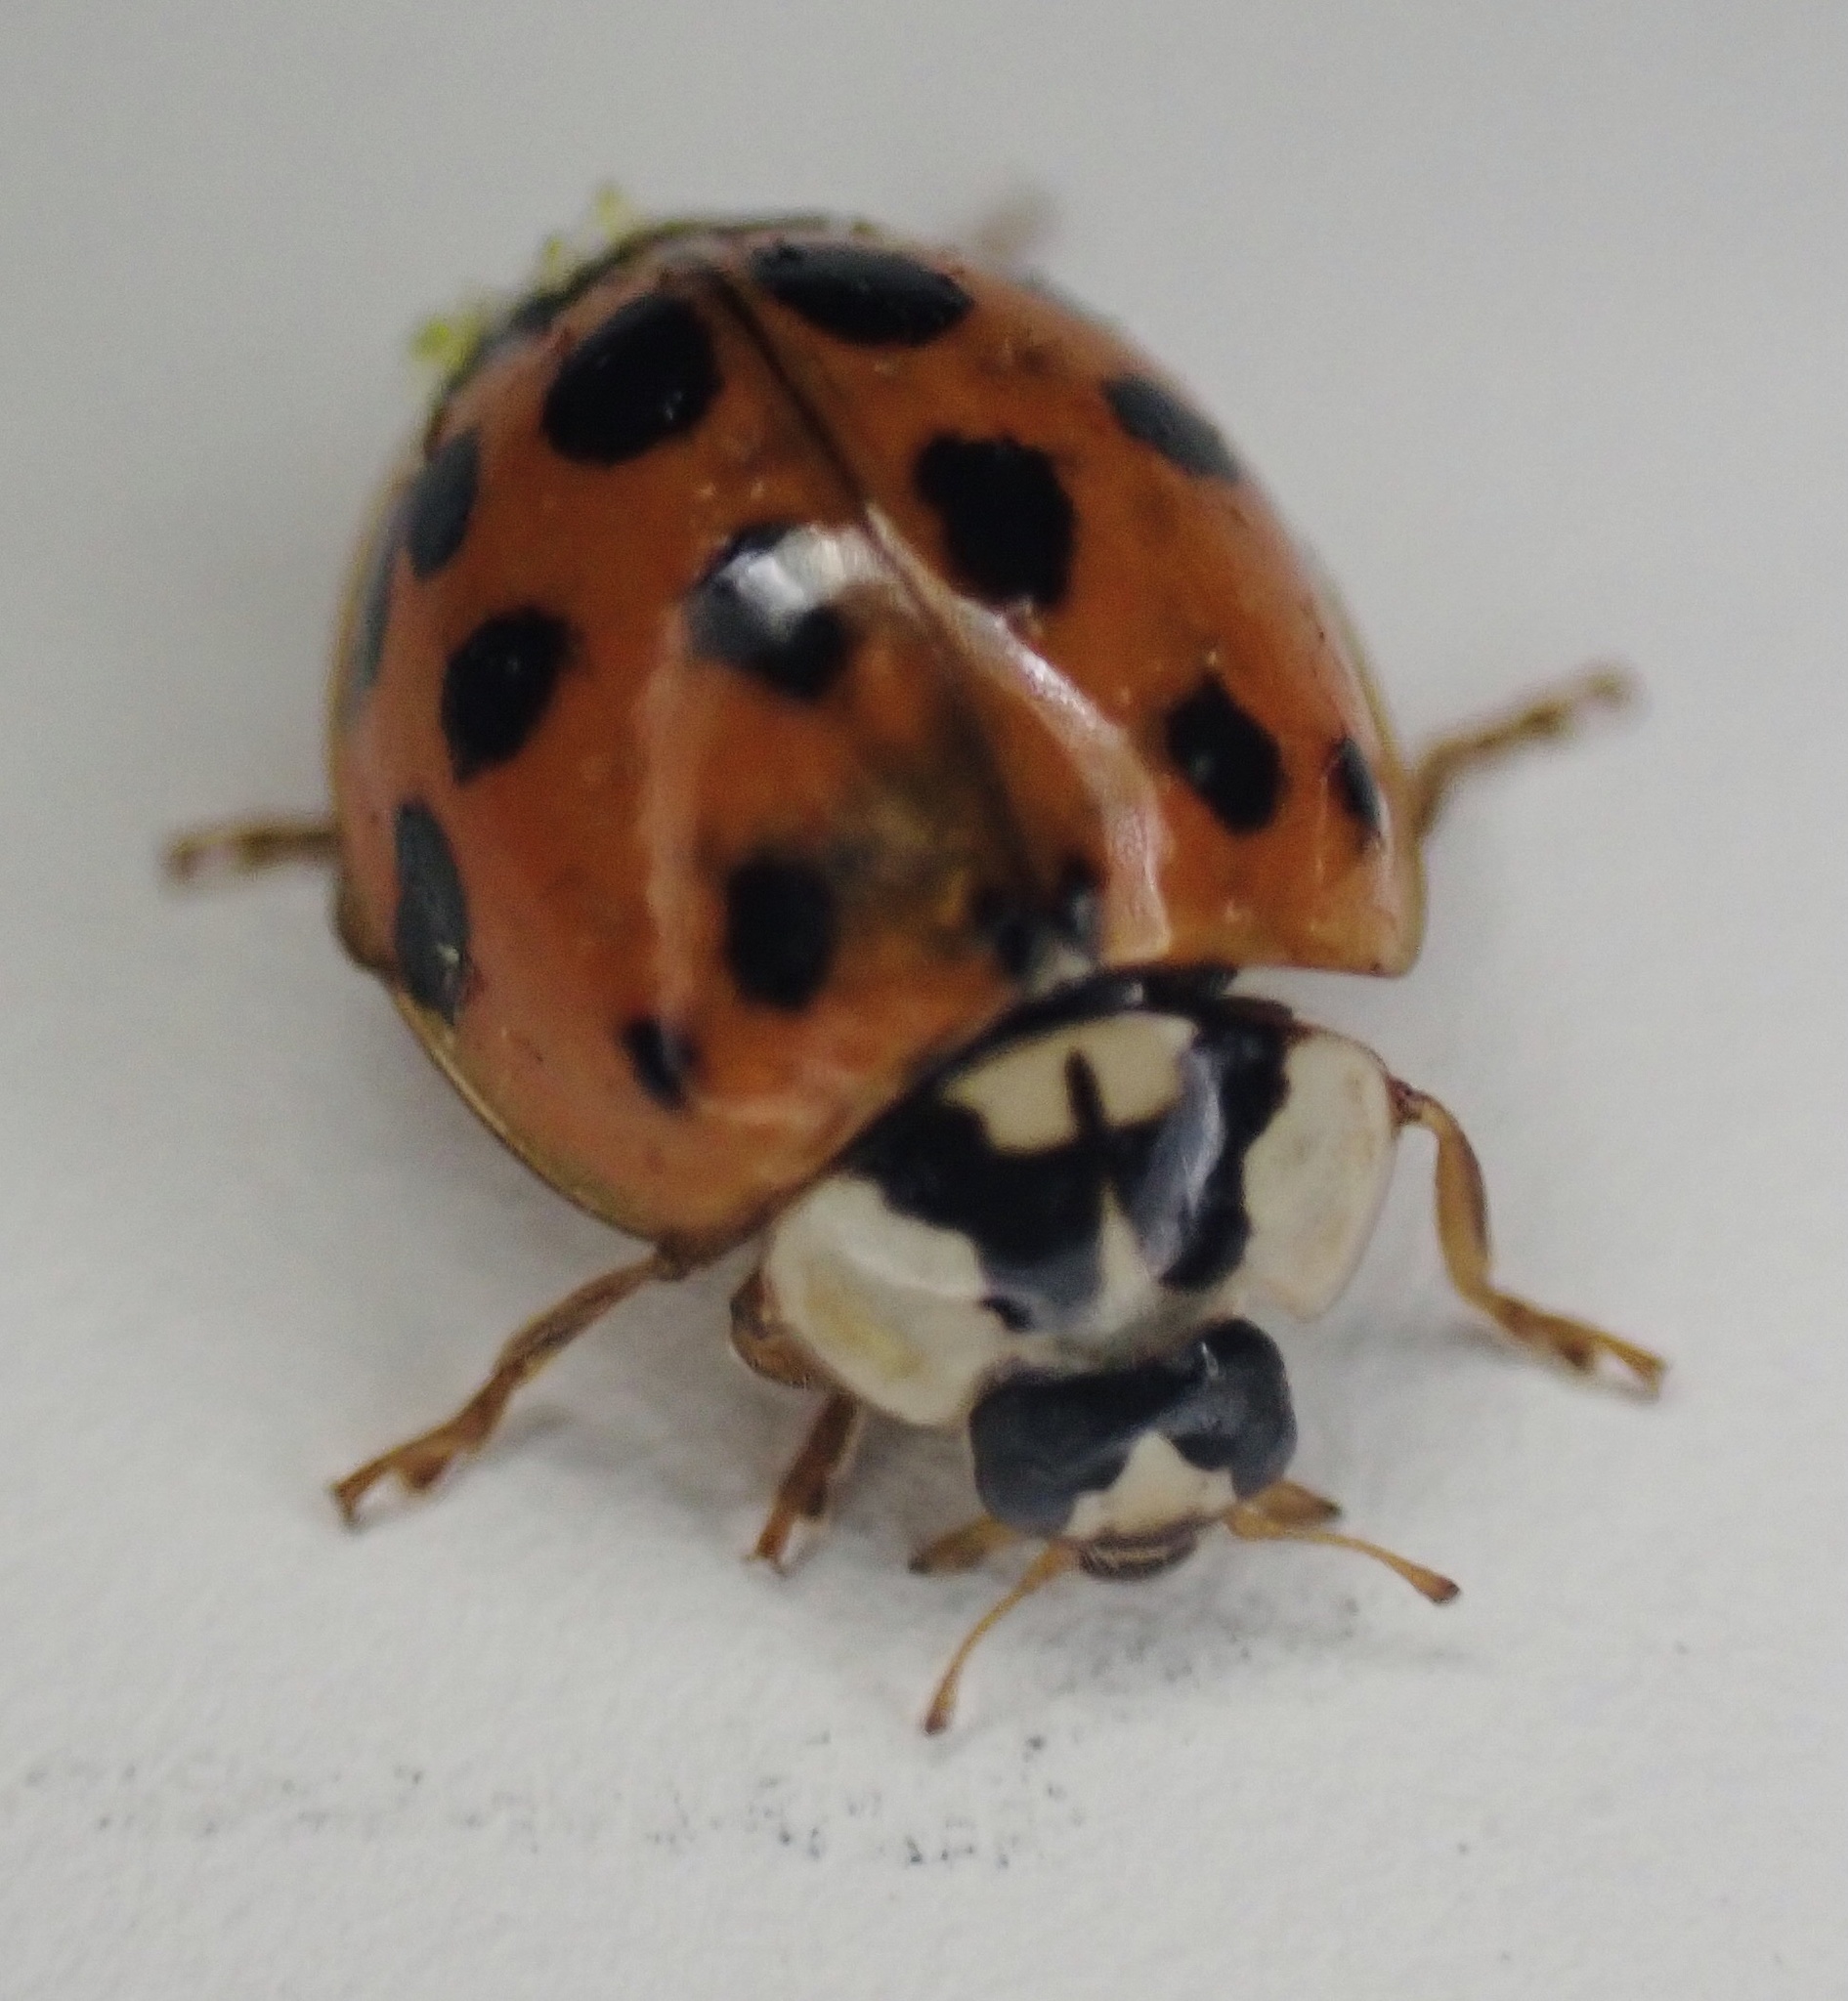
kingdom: Animalia
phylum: Arthropoda
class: Insecta
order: Coleoptera
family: Coccinellidae
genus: Harmonia
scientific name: Harmonia axyridis
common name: Harlequin ladybird
